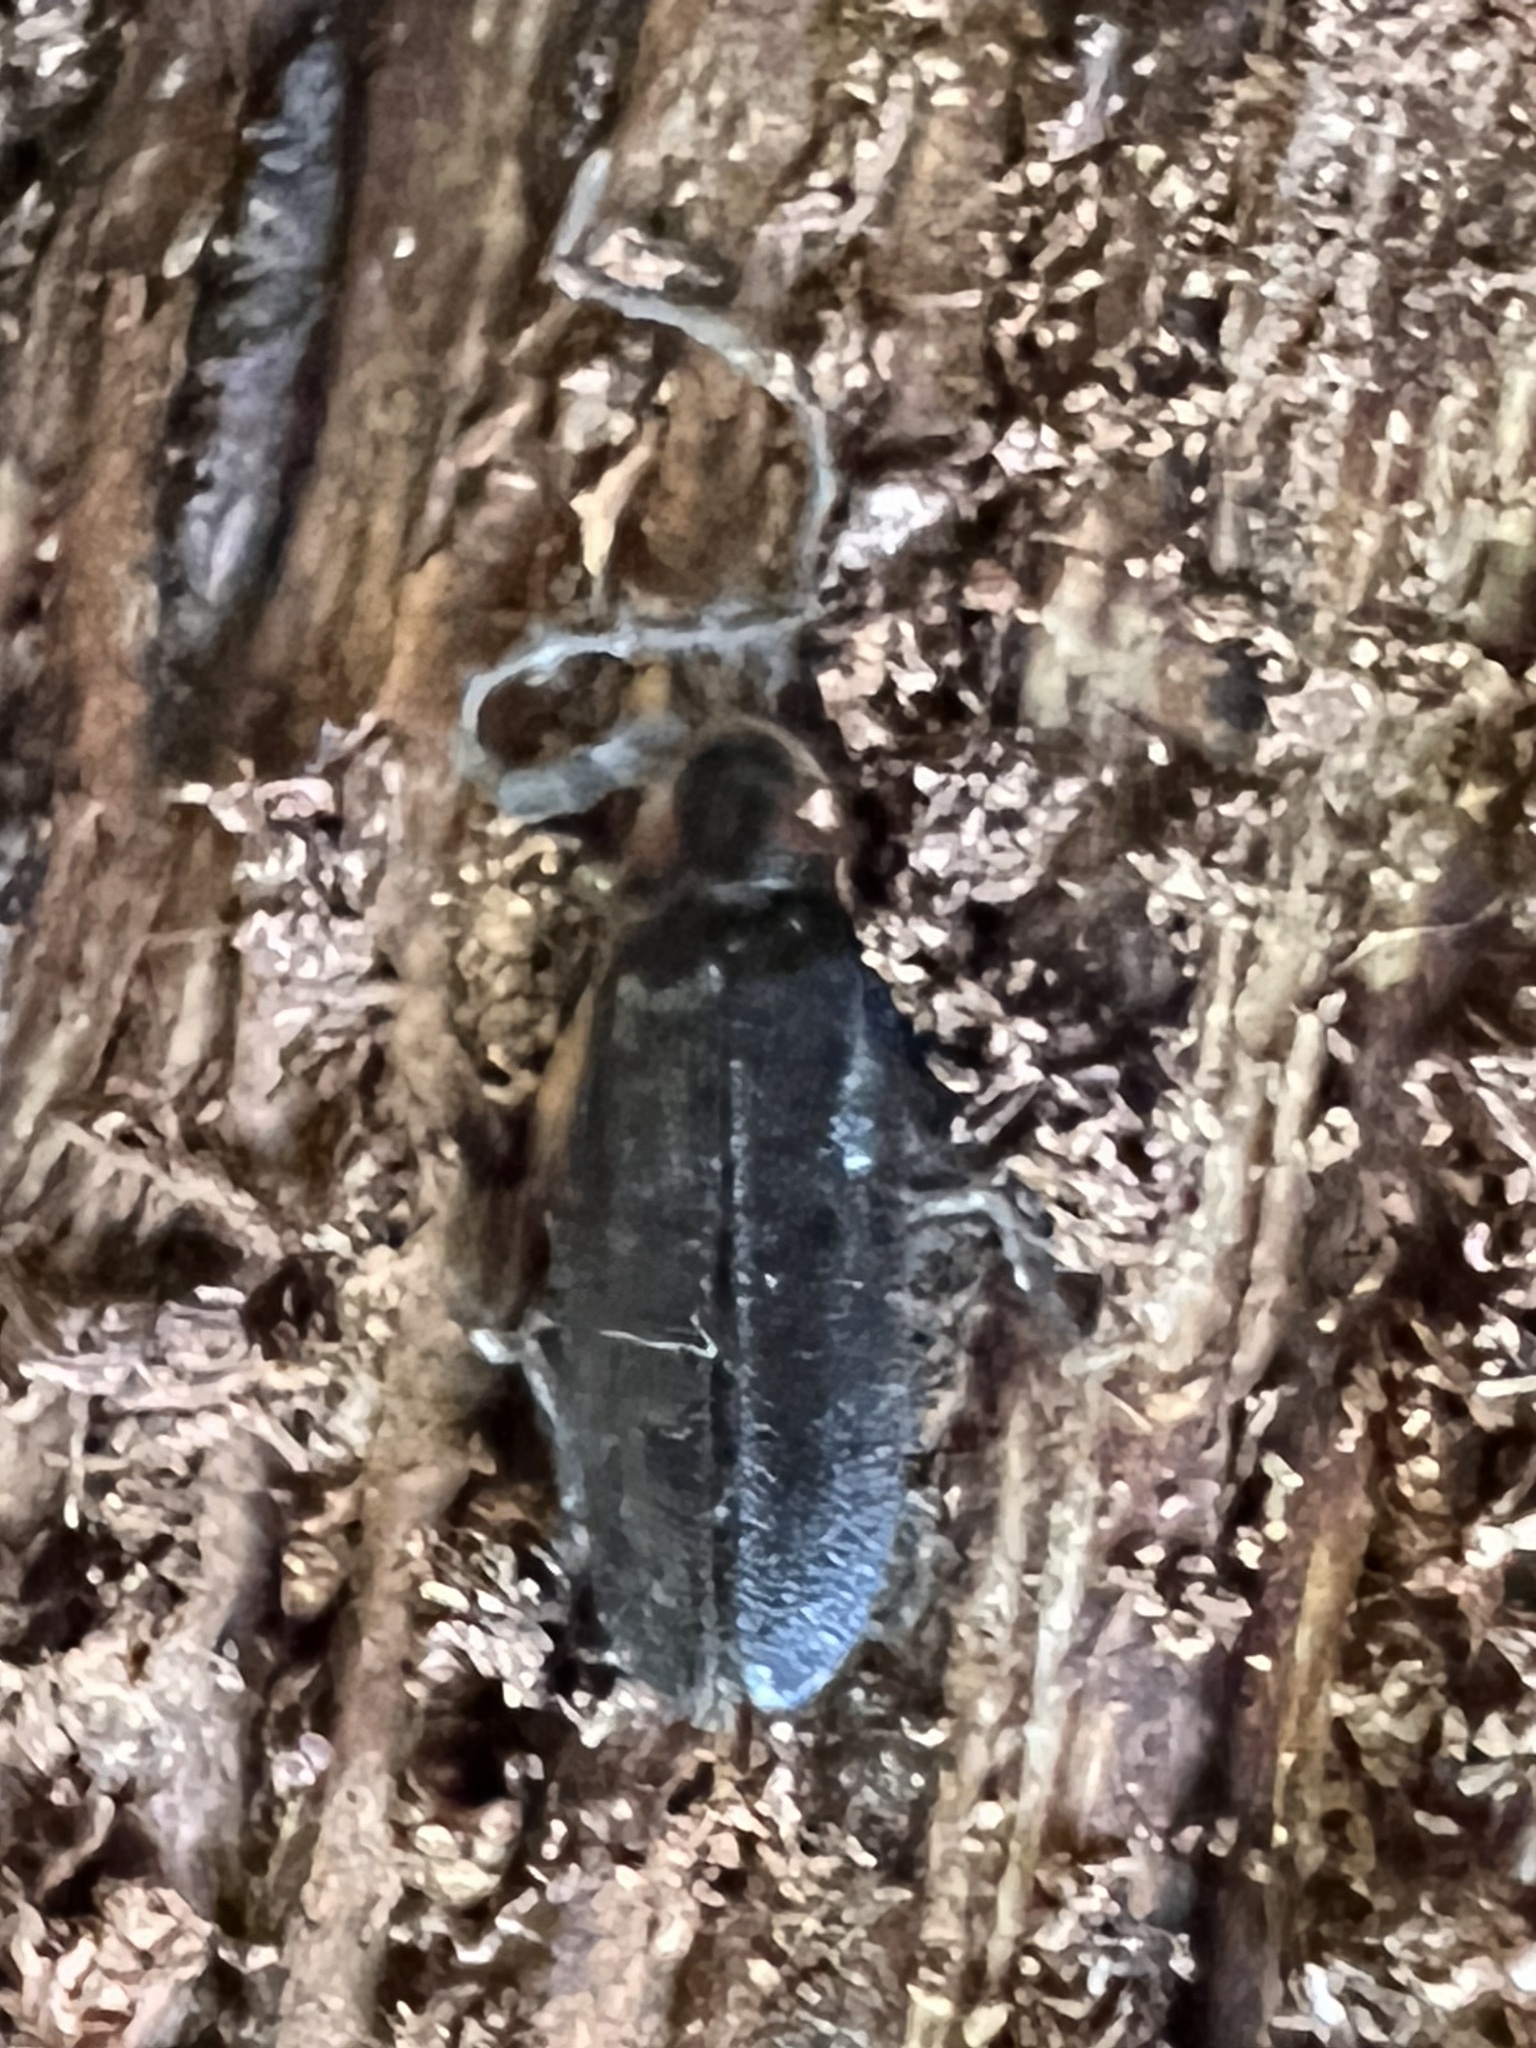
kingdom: Animalia
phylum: Arthropoda
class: Insecta
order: Coleoptera
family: Lampyridae
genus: Lucidota
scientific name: Lucidota punctata
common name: Dotted firefly
